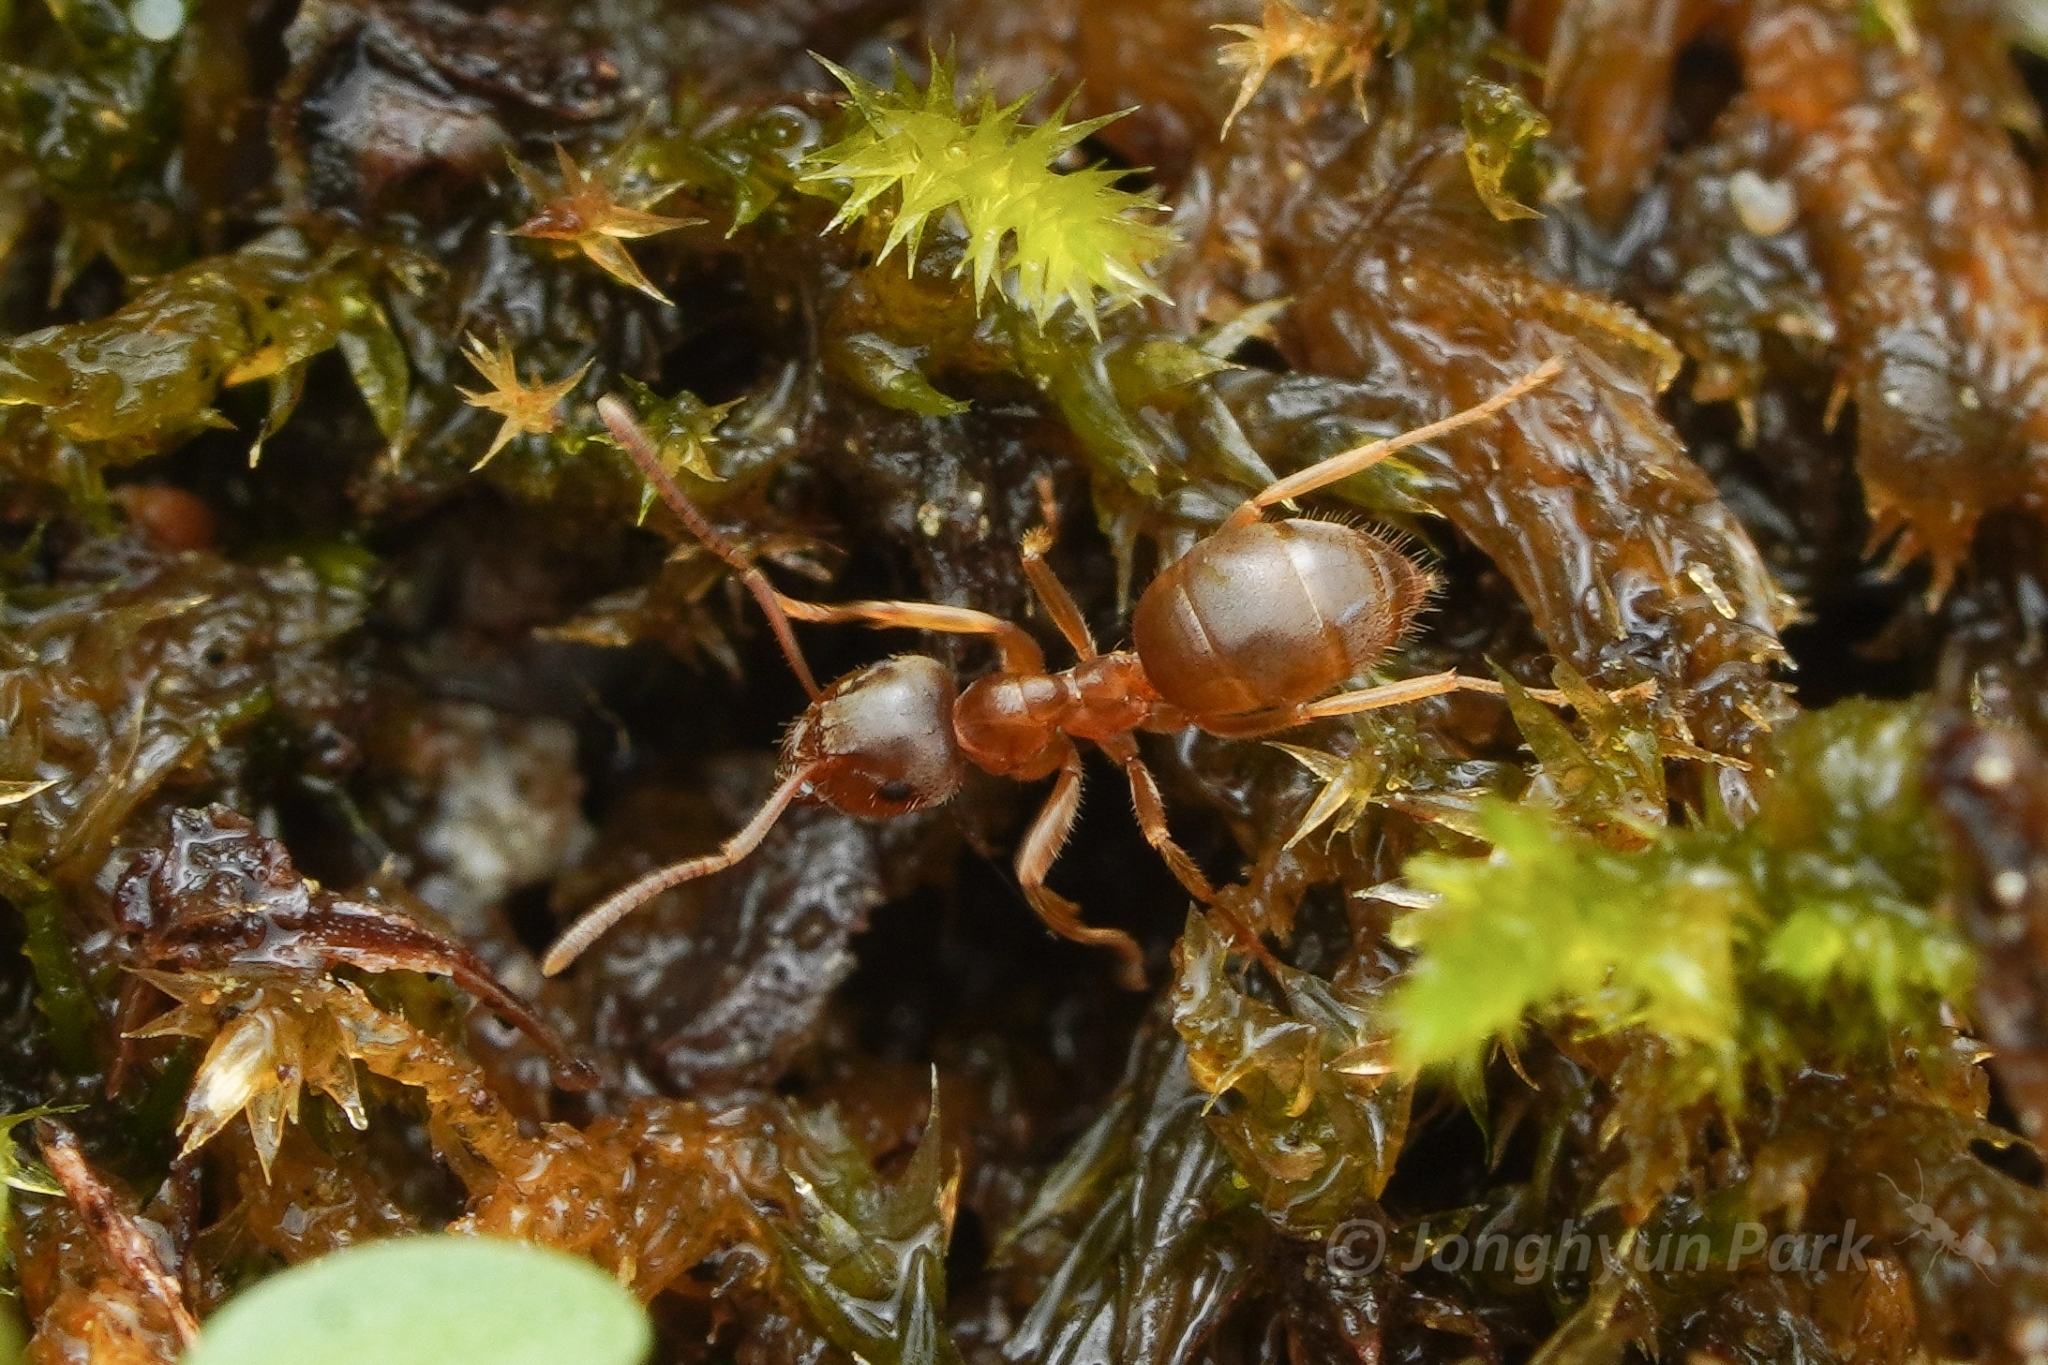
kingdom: Animalia
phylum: Arthropoda
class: Insecta
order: Hymenoptera
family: Formicidae
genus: Lasius
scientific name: Lasius pallitarsis
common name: Subterranean aphid-tending ant
